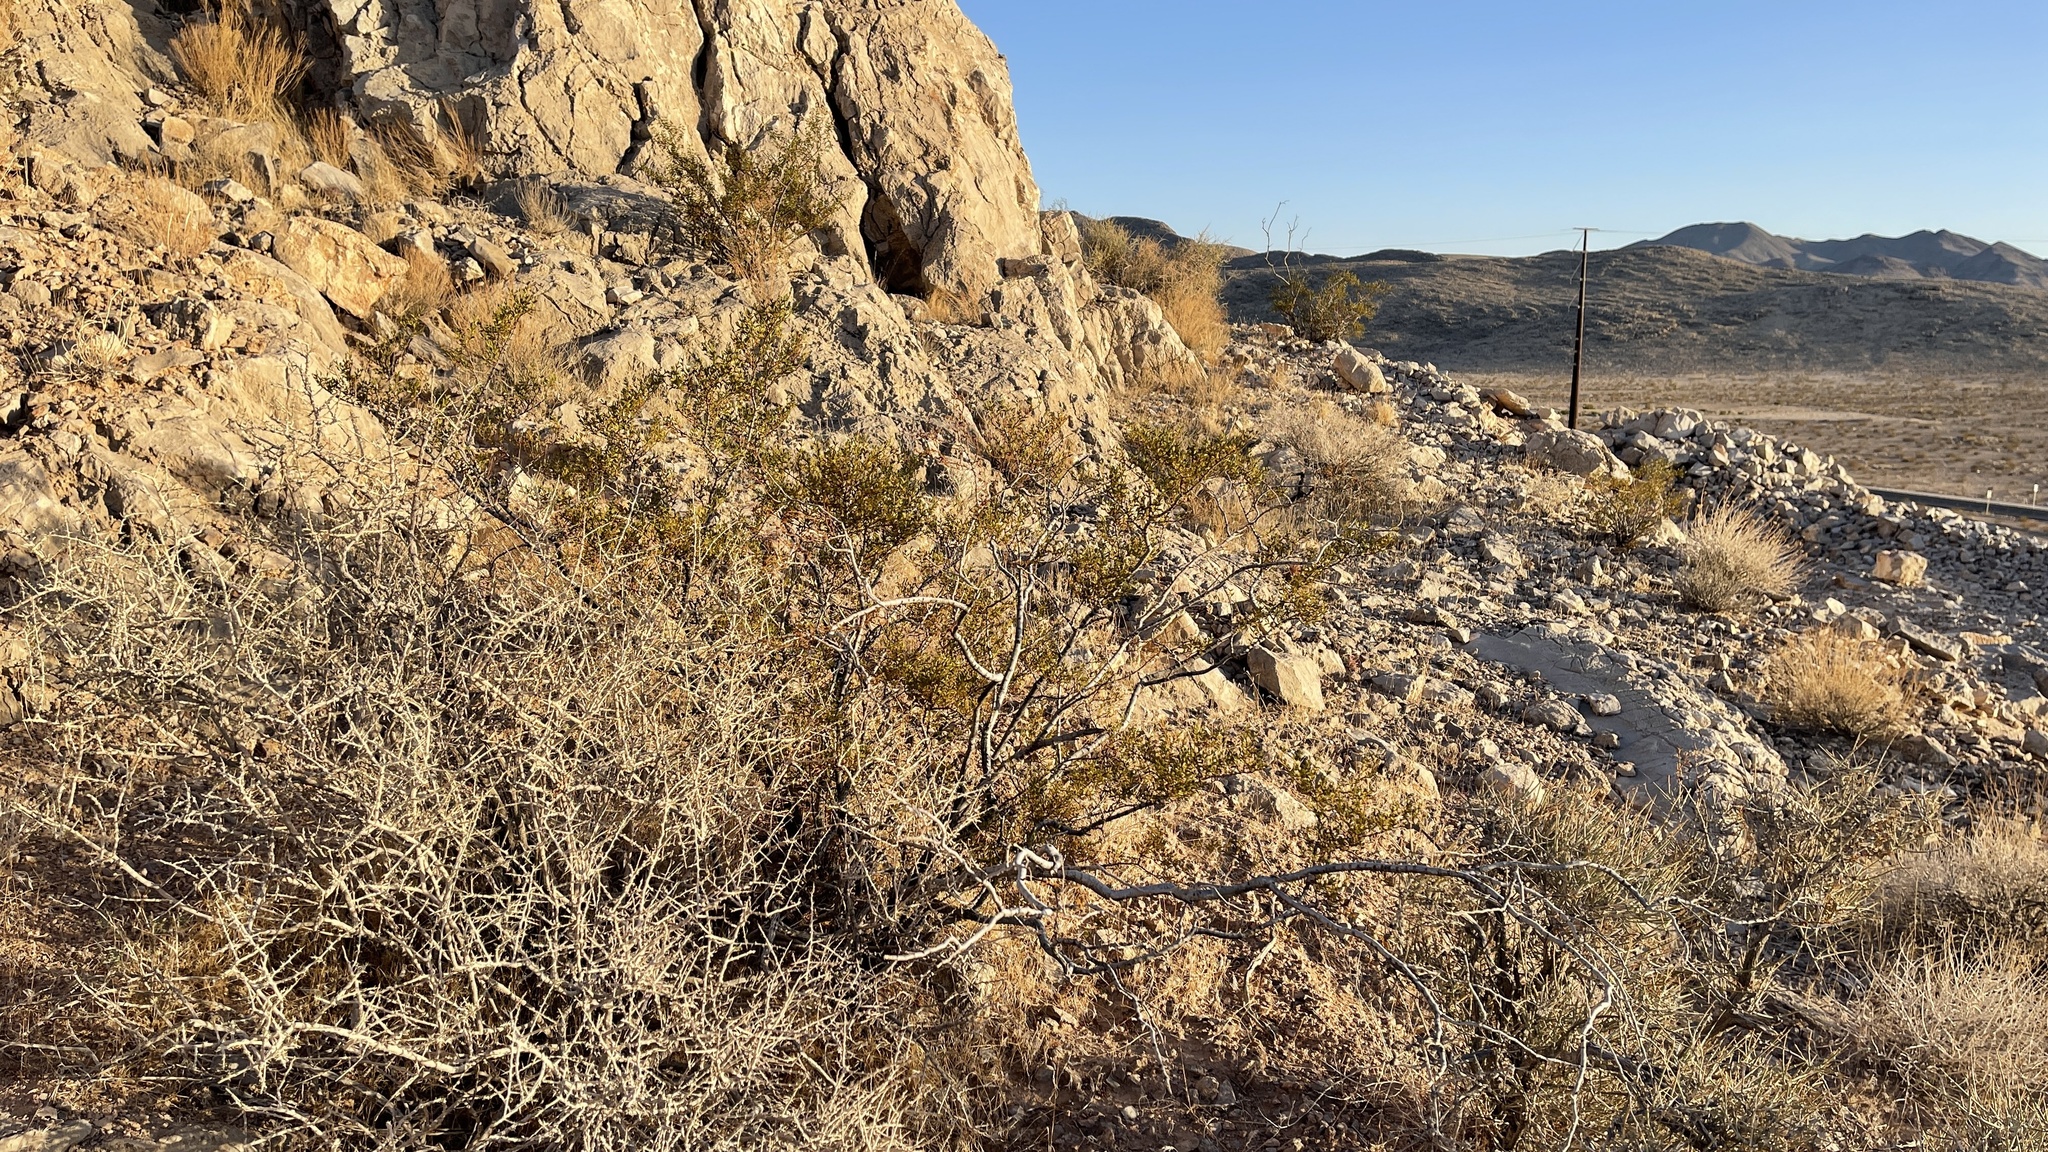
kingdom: Plantae
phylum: Tracheophyta
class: Magnoliopsida
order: Zygophyllales
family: Zygophyllaceae
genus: Larrea
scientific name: Larrea tridentata
